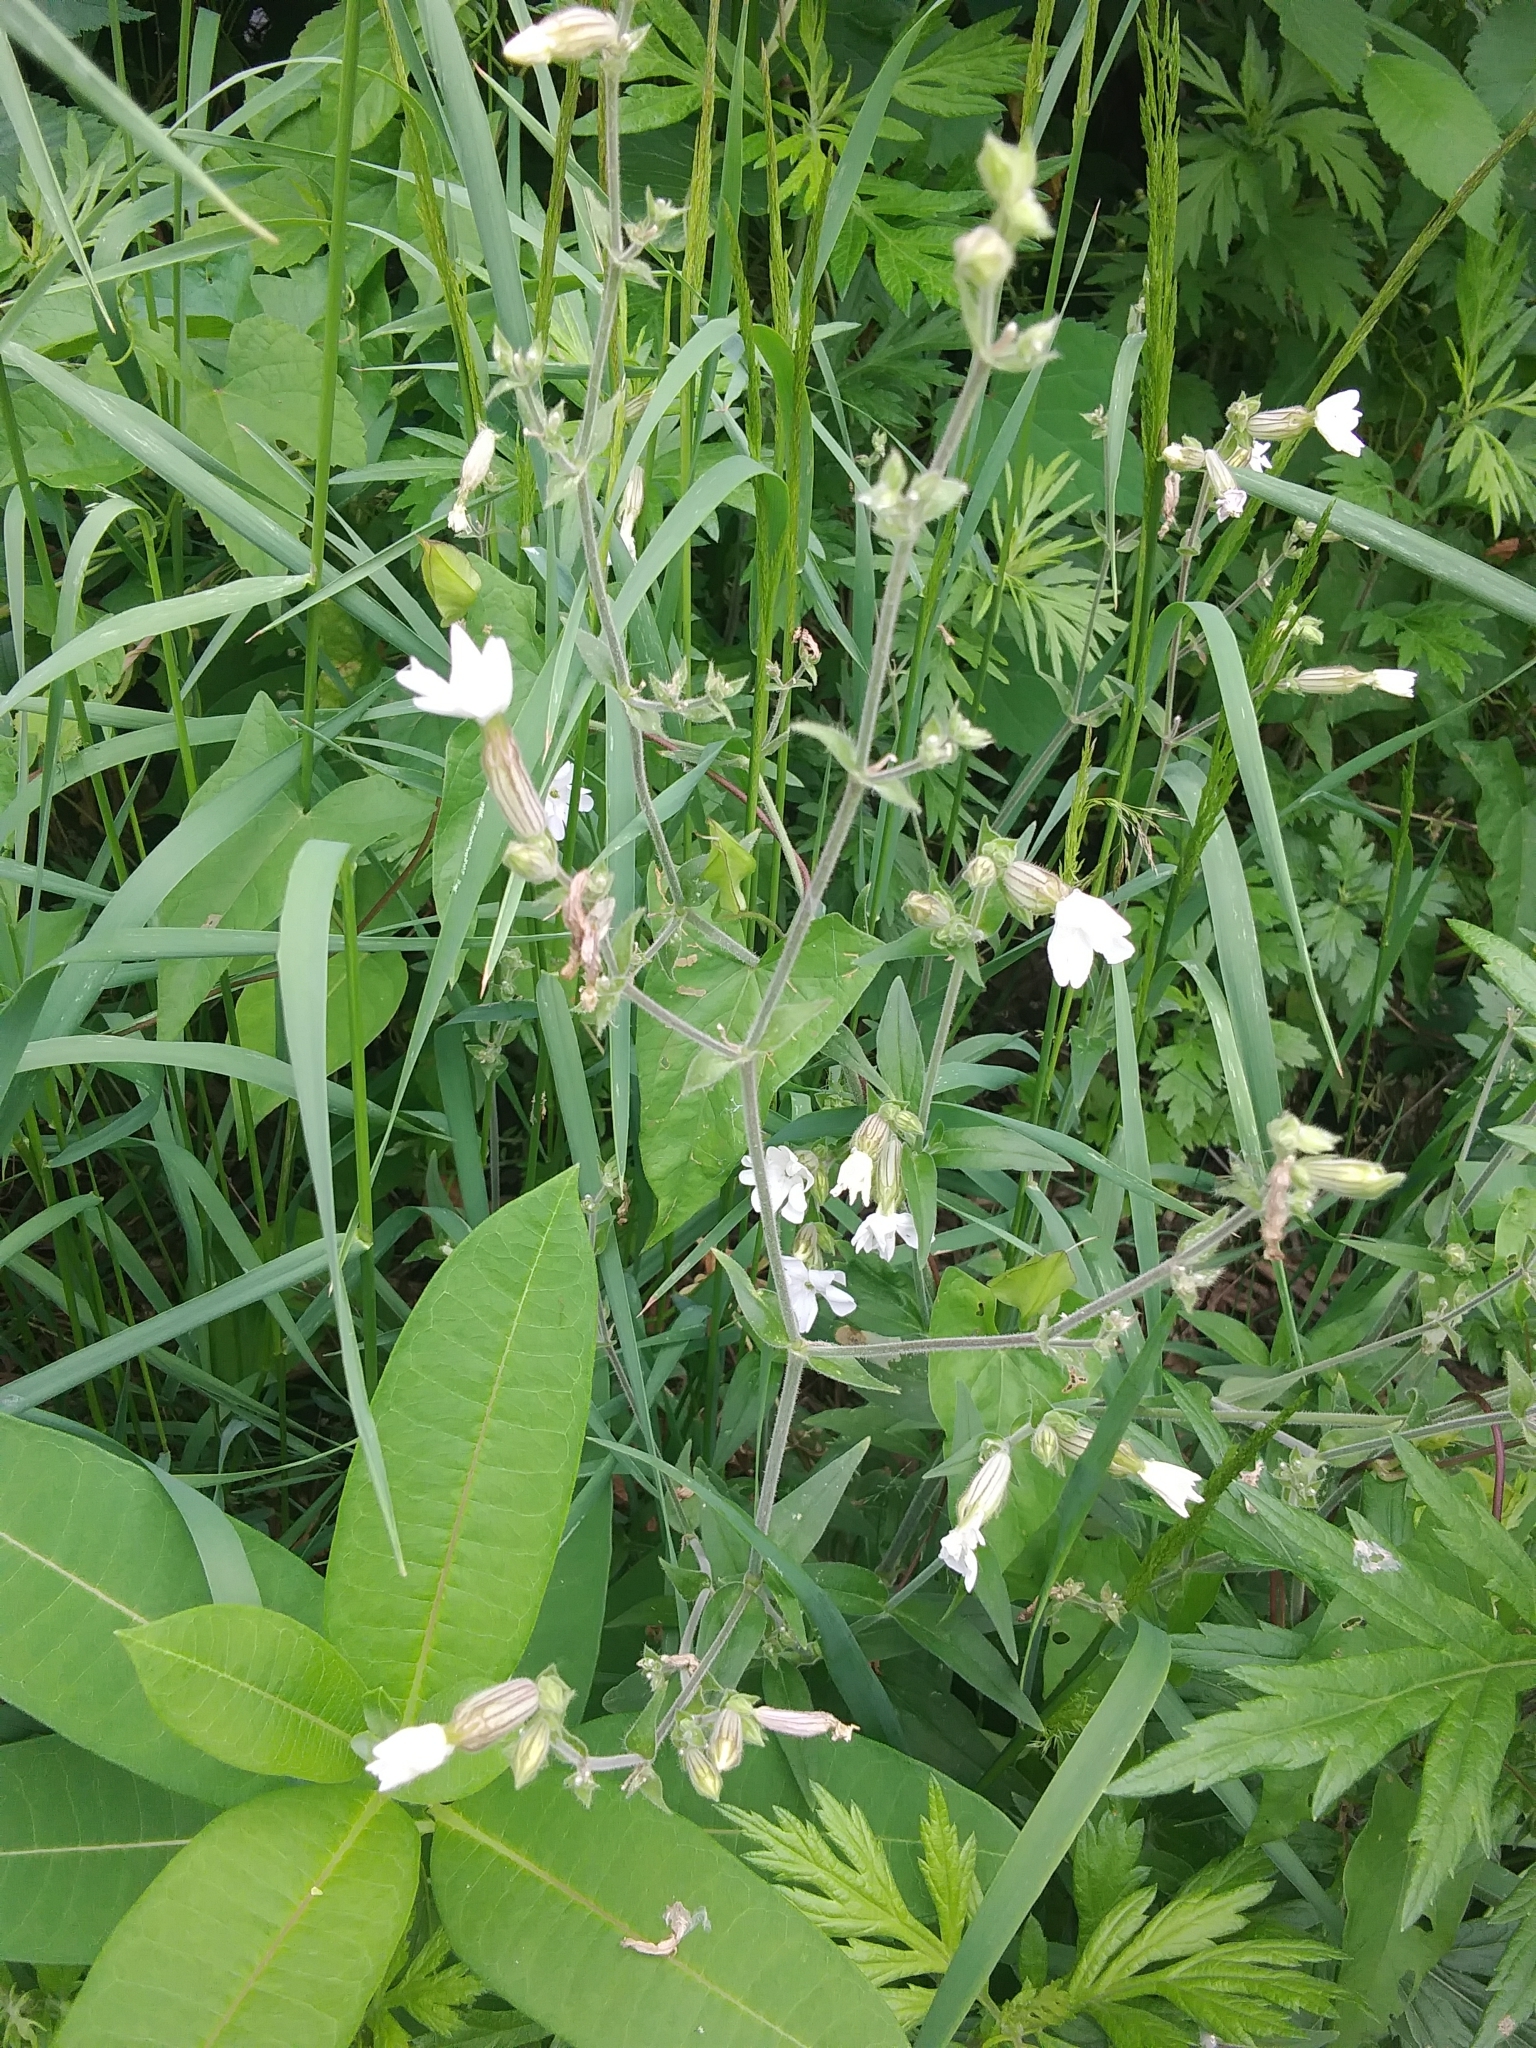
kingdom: Plantae
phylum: Tracheophyta
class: Magnoliopsida
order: Caryophyllales
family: Caryophyllaceae
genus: Silene
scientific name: Silene latifolia
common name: White campion
